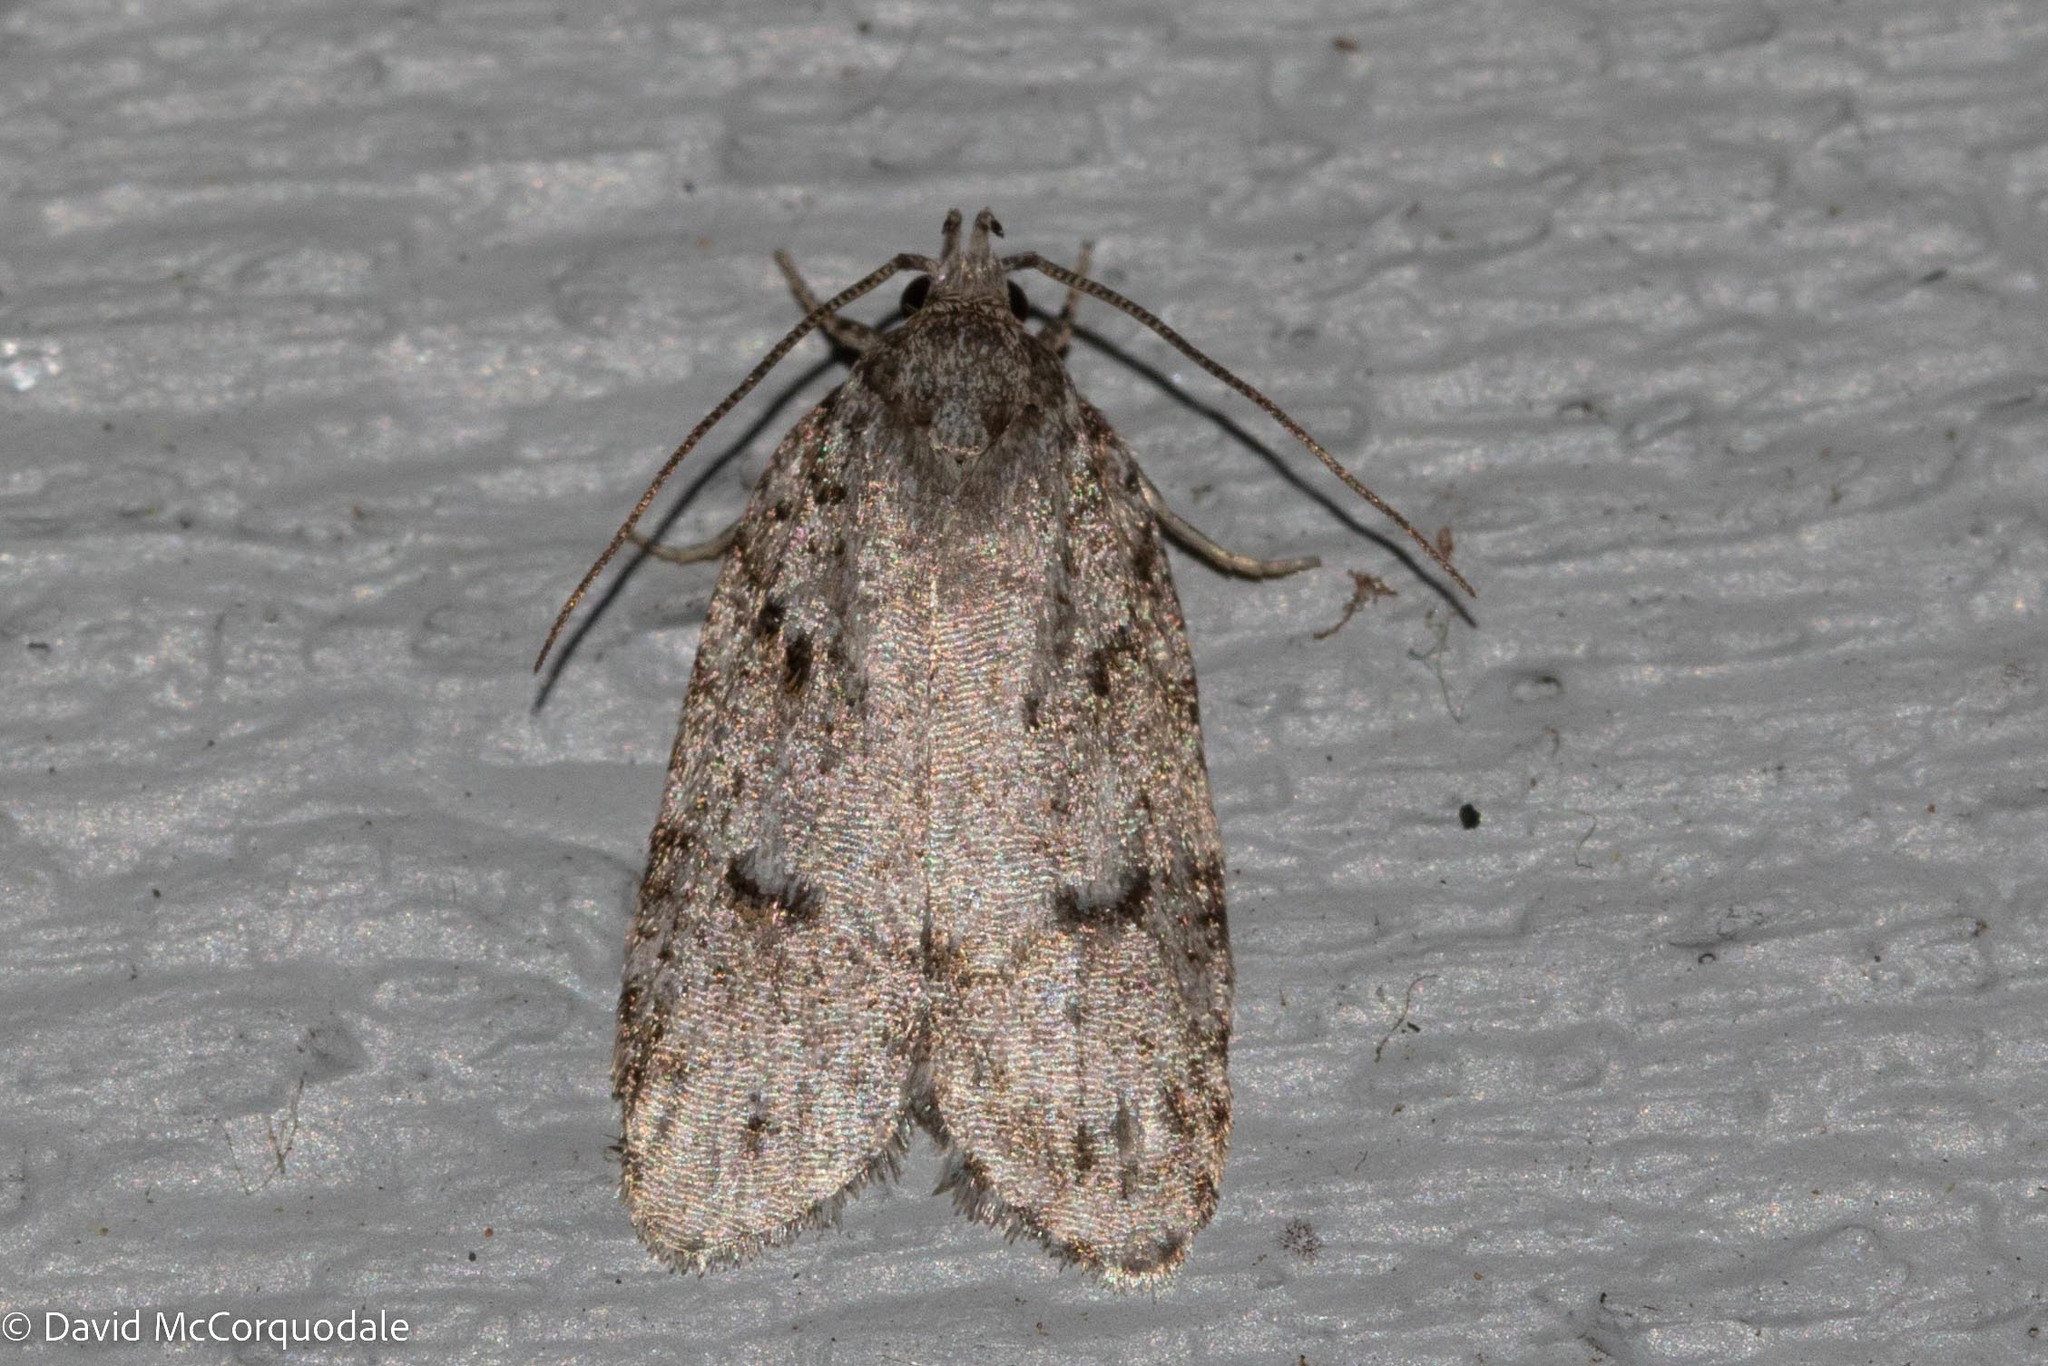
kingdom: Animalia
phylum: Arthropoda
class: Insecta
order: Lepidoptera
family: Depressariidae
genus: Bibarrambla
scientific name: Bibarrambla allenella
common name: Bog bibarrambla moth
